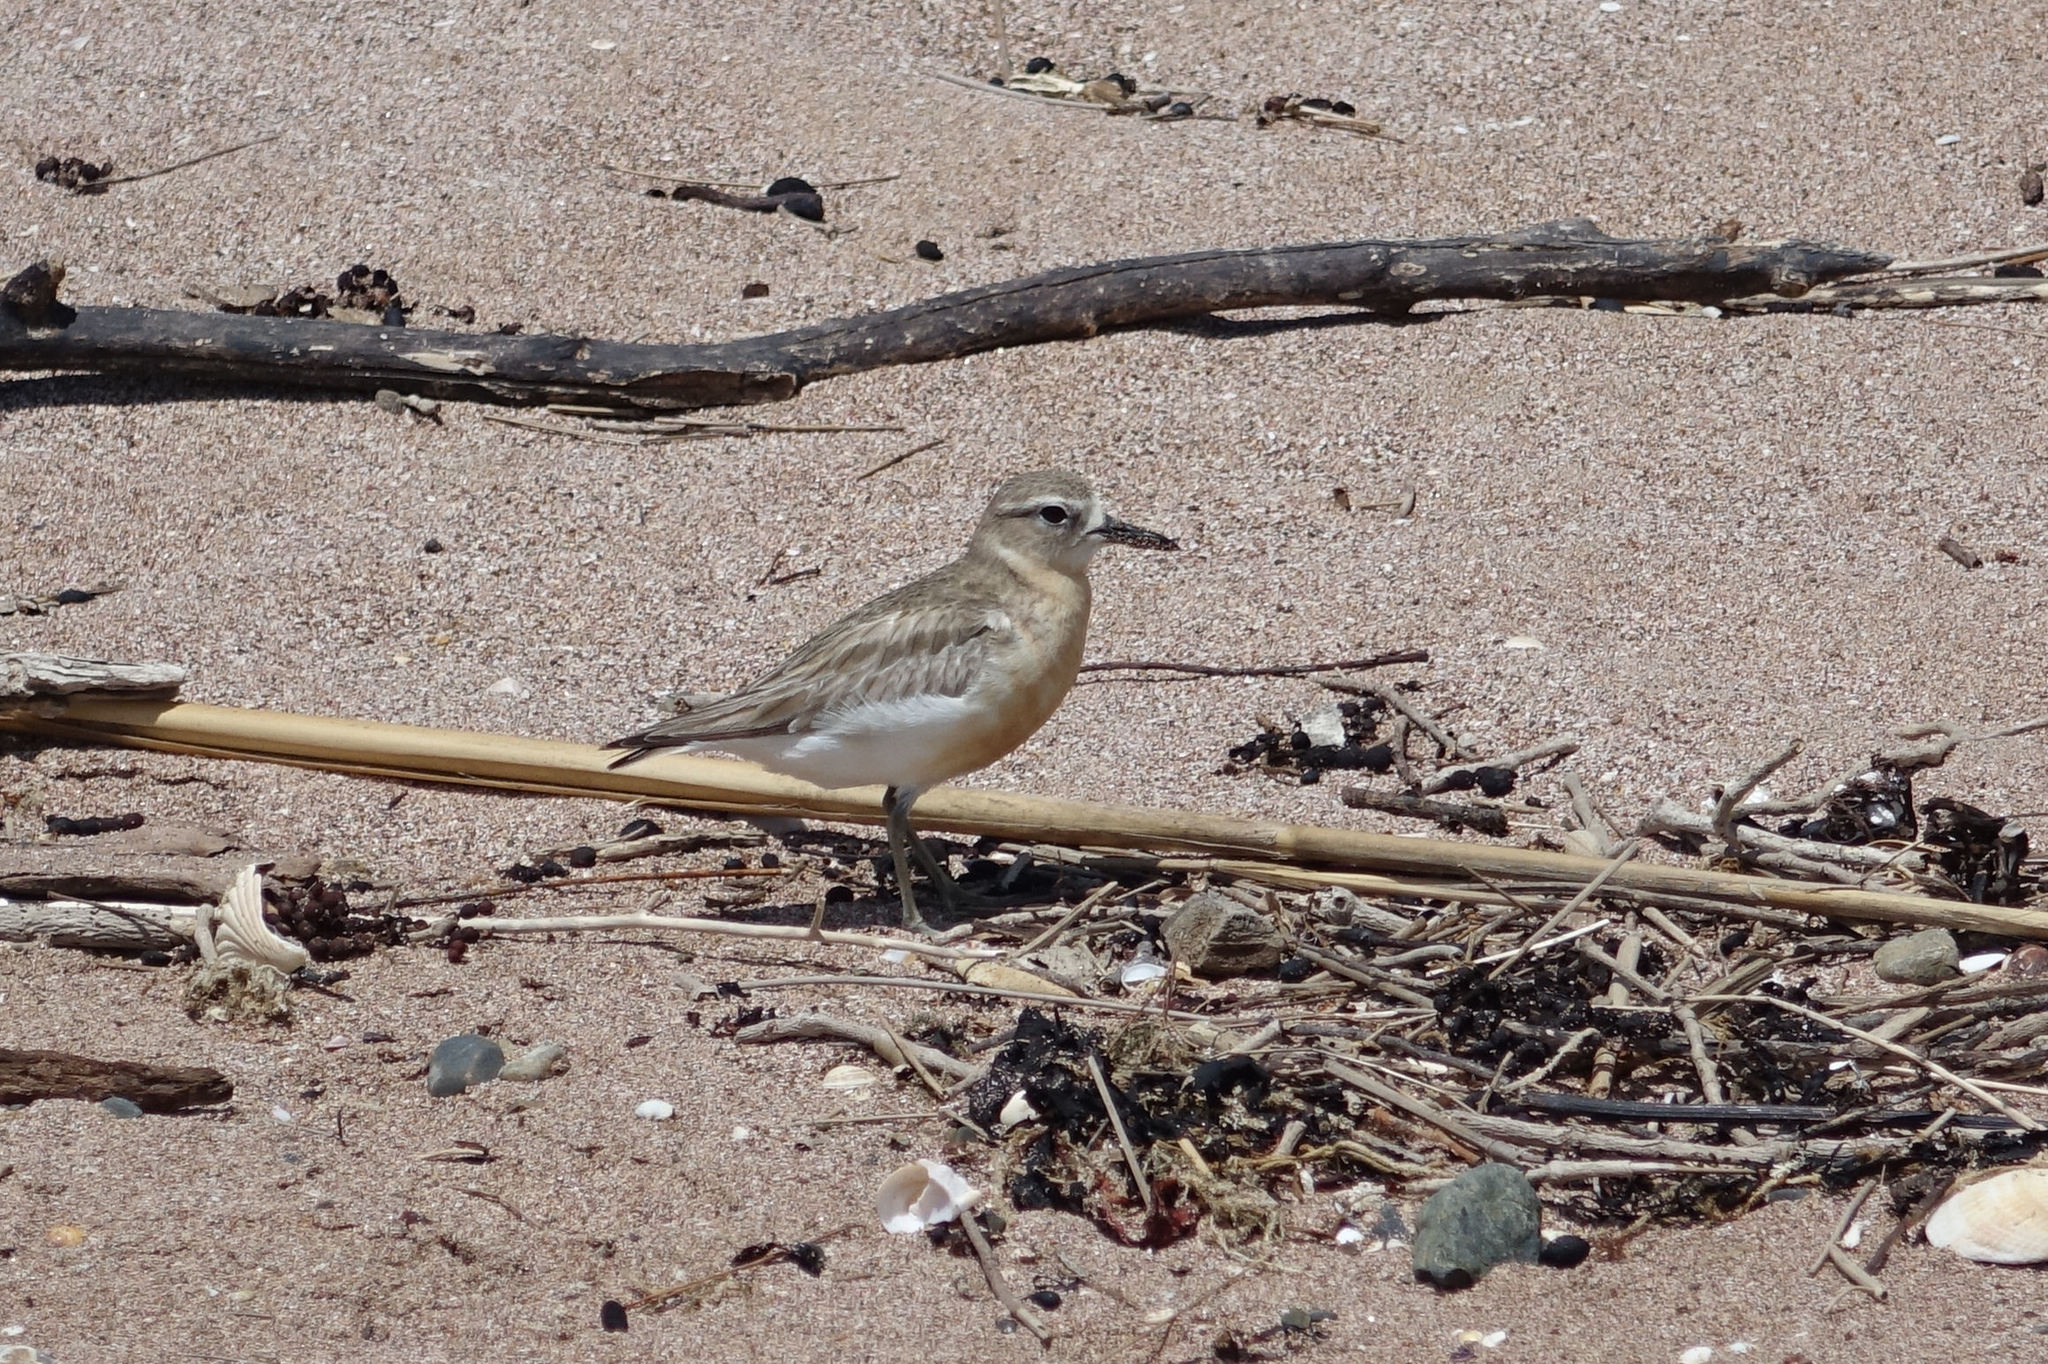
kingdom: Animalia
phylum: Chordata
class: Aves
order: Charadriiformes
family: Charadriidae
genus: Anarhynchus
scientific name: Anarhynchus
